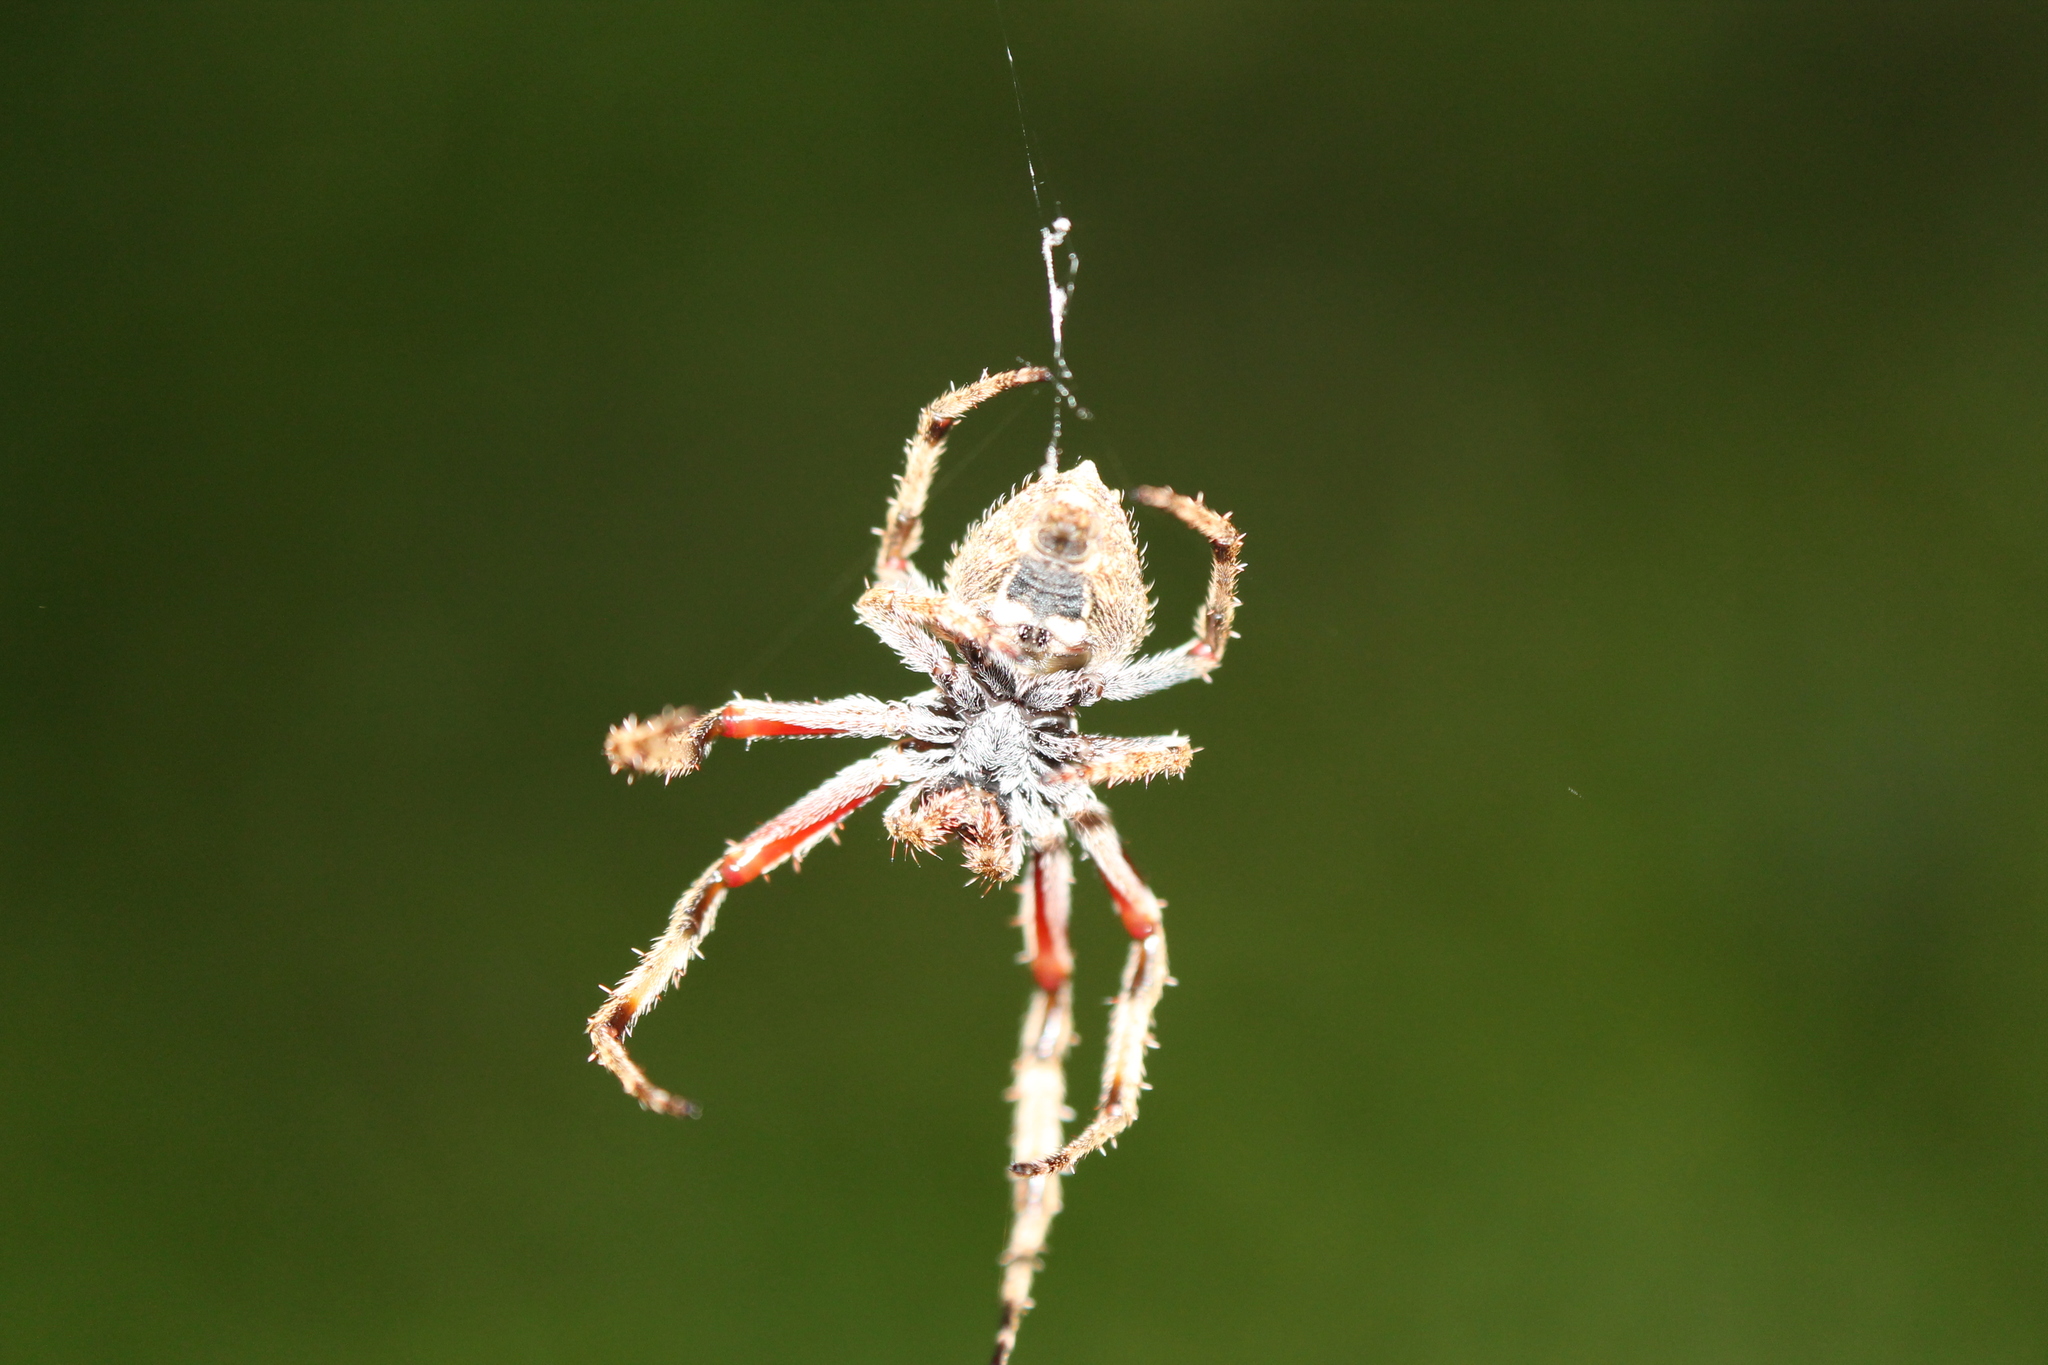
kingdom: Animalia
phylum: Arthropoda
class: Arachnida
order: Araneae
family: Araneidae
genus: Eriophora
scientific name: Eriophora pustulosa
